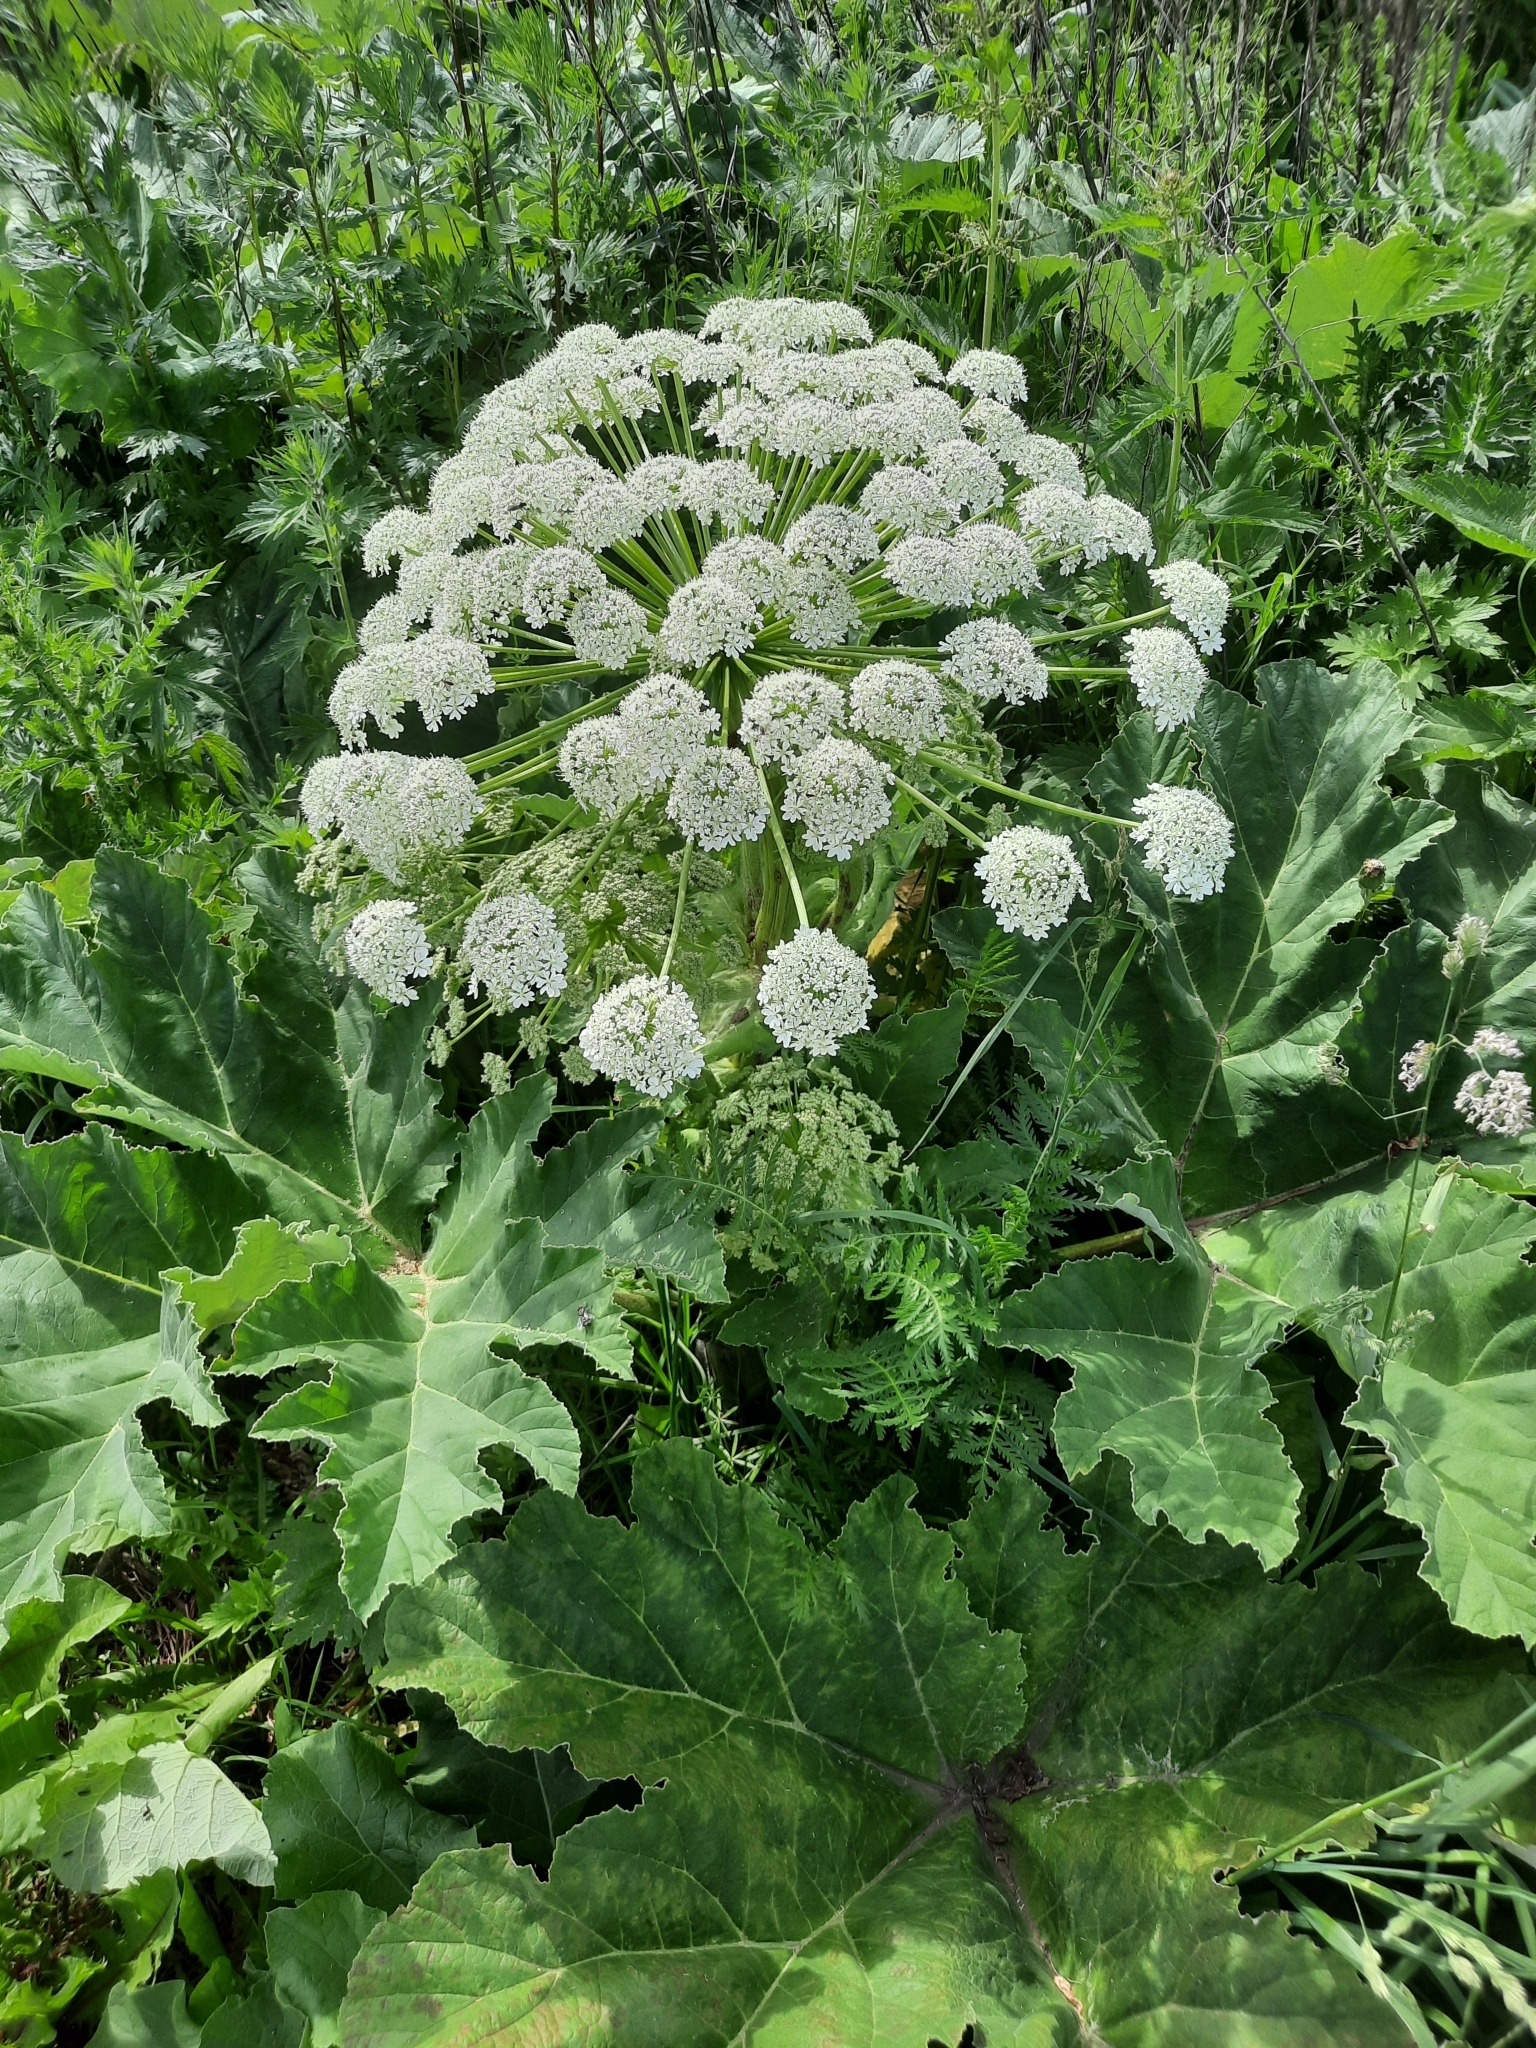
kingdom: Plantae
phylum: Tracheophyta
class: Magnoliopsida
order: Apiales
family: Apiaceae
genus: Heracleum
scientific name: Heracleum sosnowskyi
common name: Sosnowsky's hogweed
